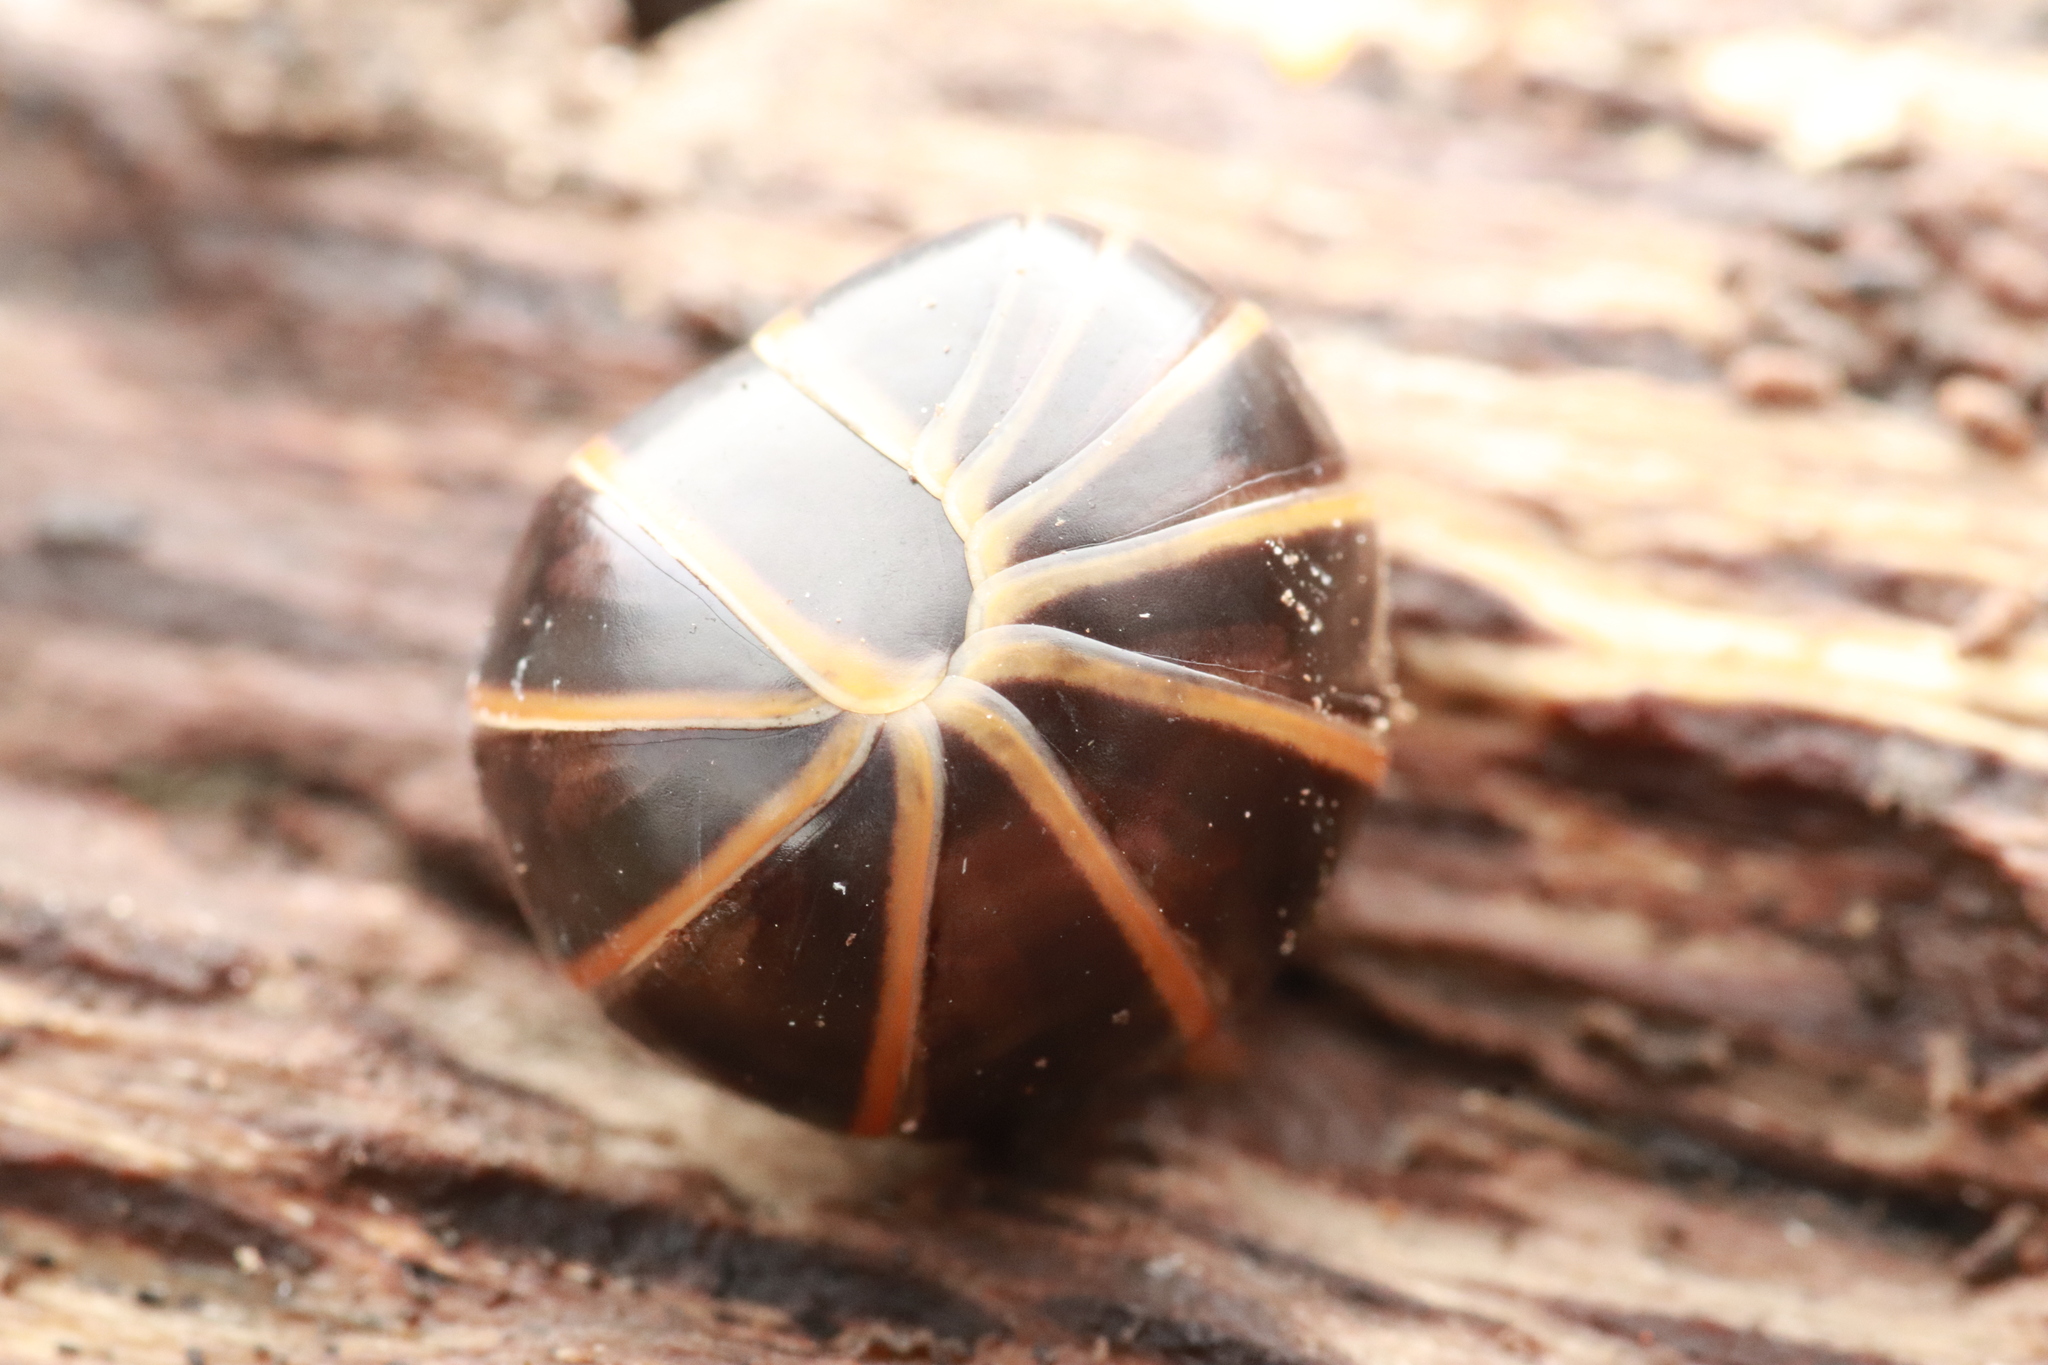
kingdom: Animalia
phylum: Arthropoda
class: Diplopoda
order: Glomerida
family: Glomeridae
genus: Glomeris
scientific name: Glomeris marginata
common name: Bordered pill millipede
